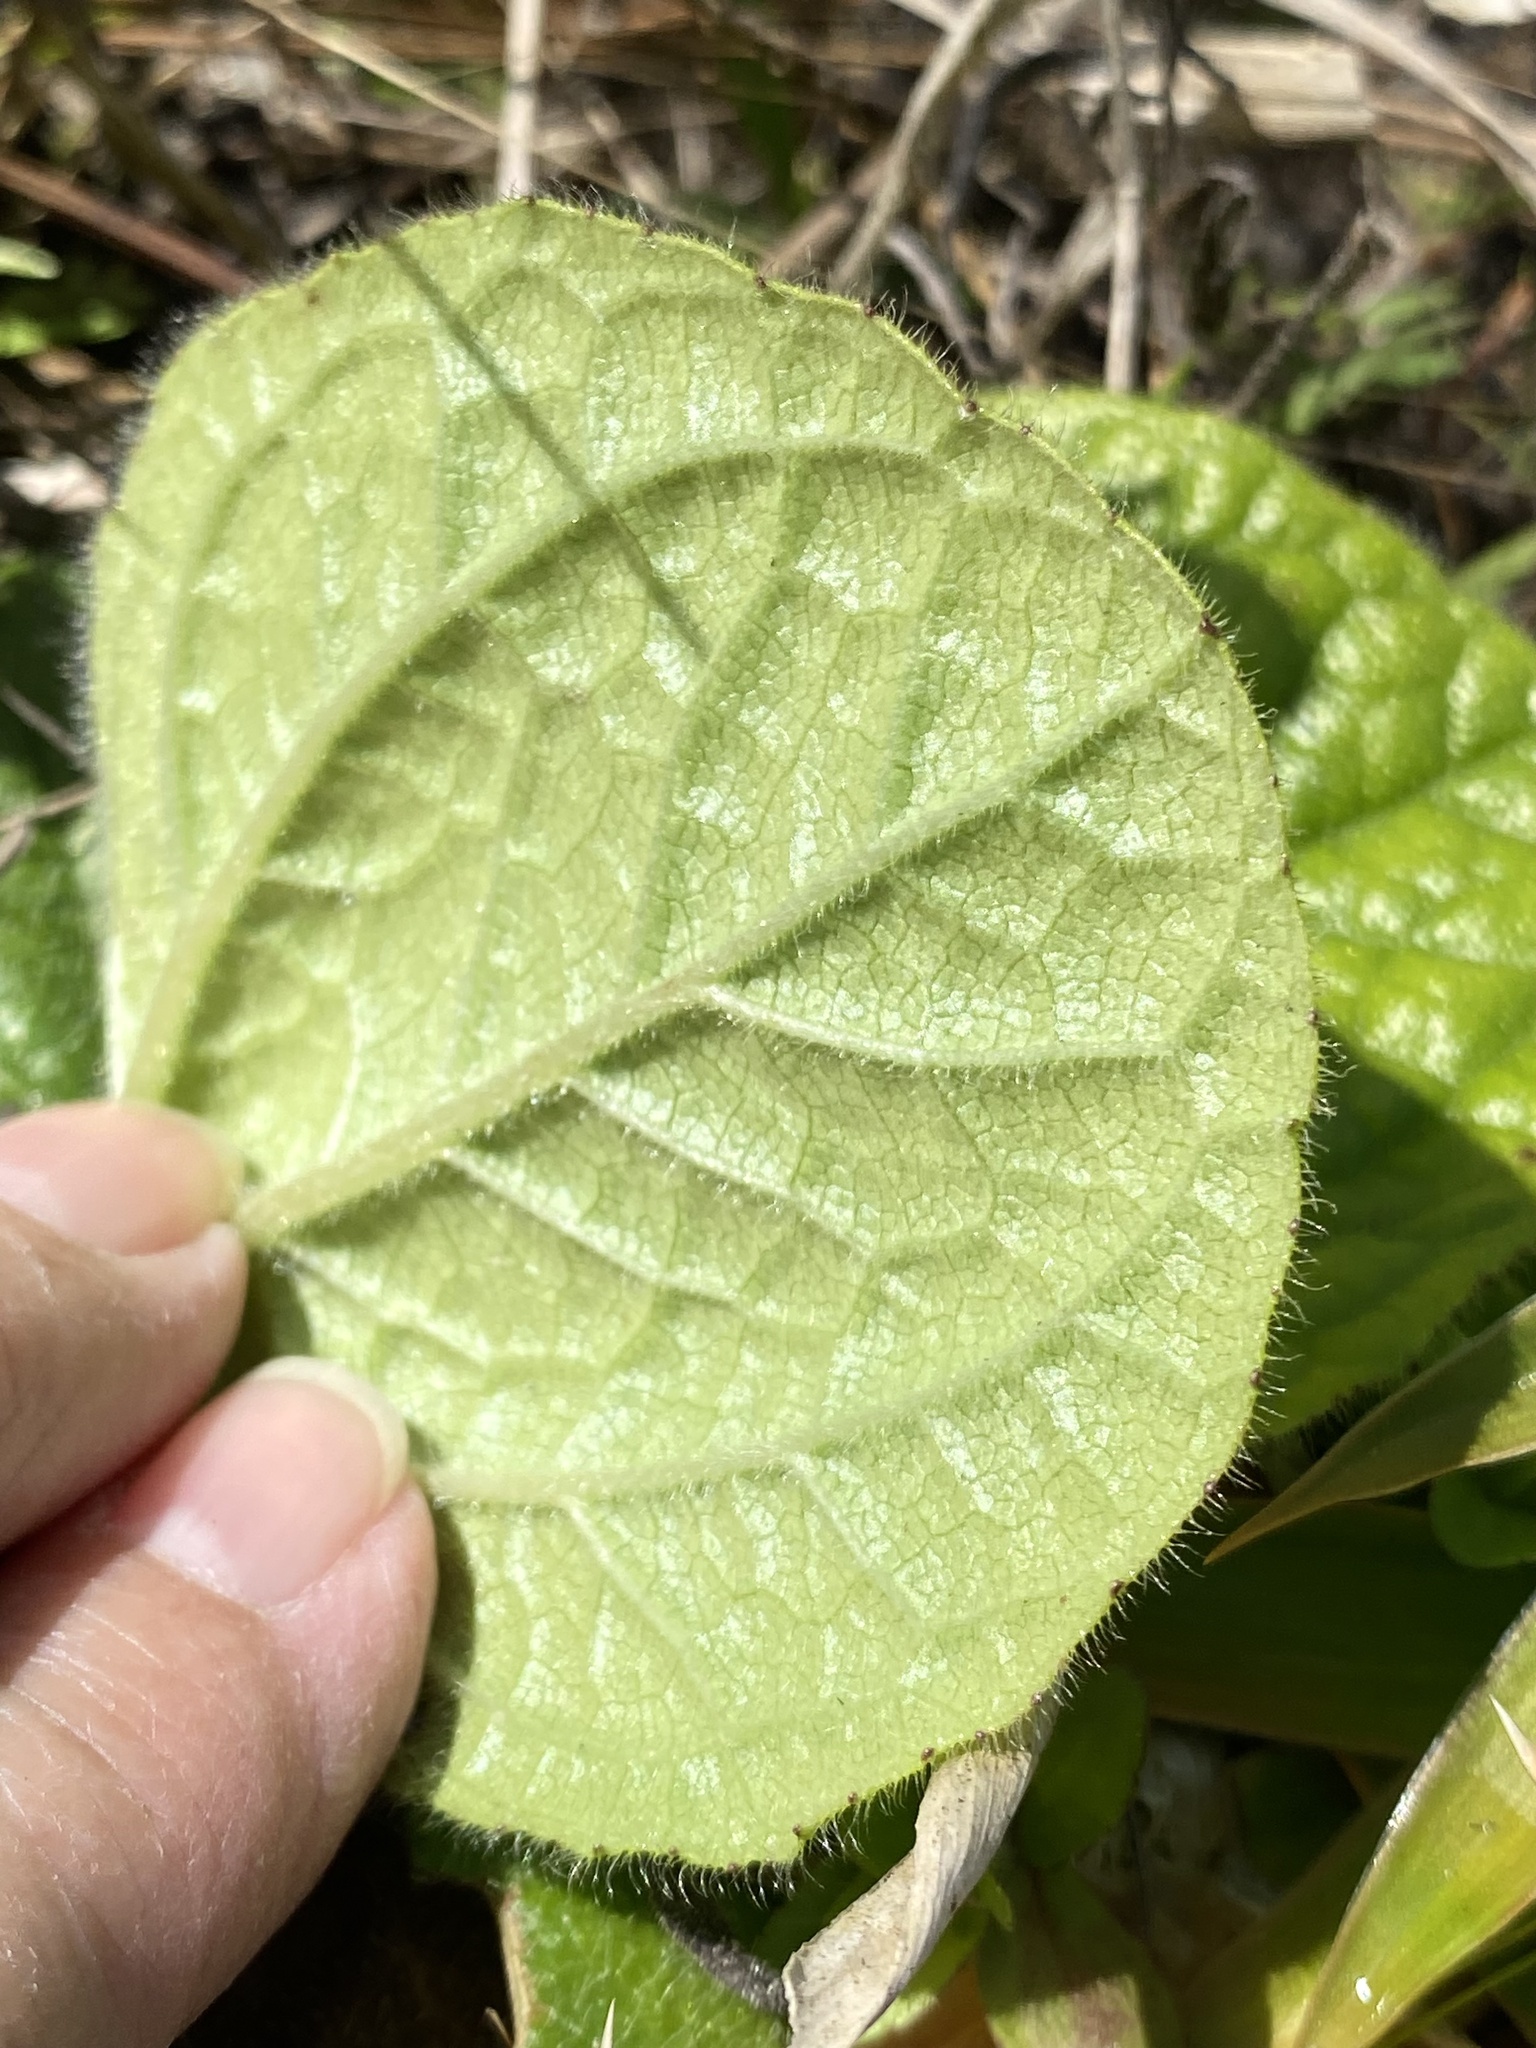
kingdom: Plantae
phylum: Tracheophyta
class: Magnoliopsida
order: Asterales
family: Asteraceae
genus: Helianthus
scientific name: Helianthus radula
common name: Pineland sunflower
